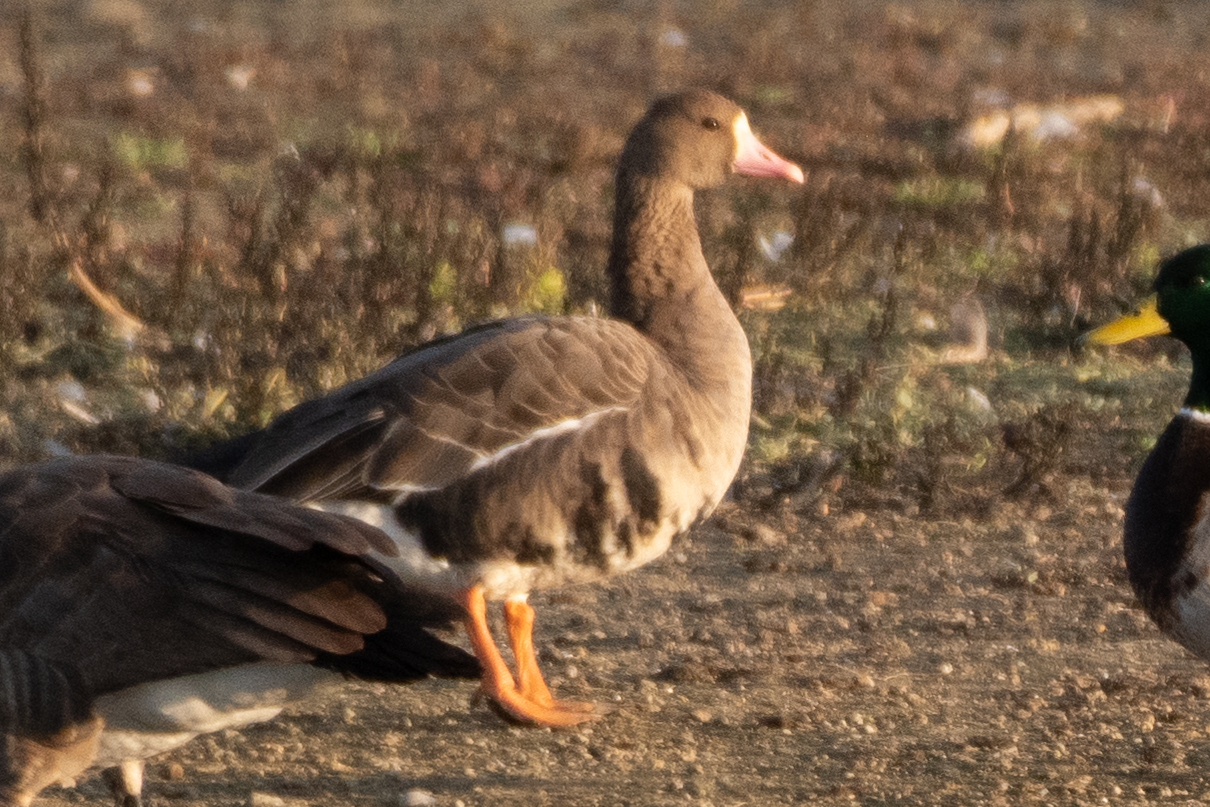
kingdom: Animalia
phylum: Chordata
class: Aves
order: Anseriformes
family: Anatidae
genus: Anser
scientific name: Anser albifrons
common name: Greater white-fronted goose
